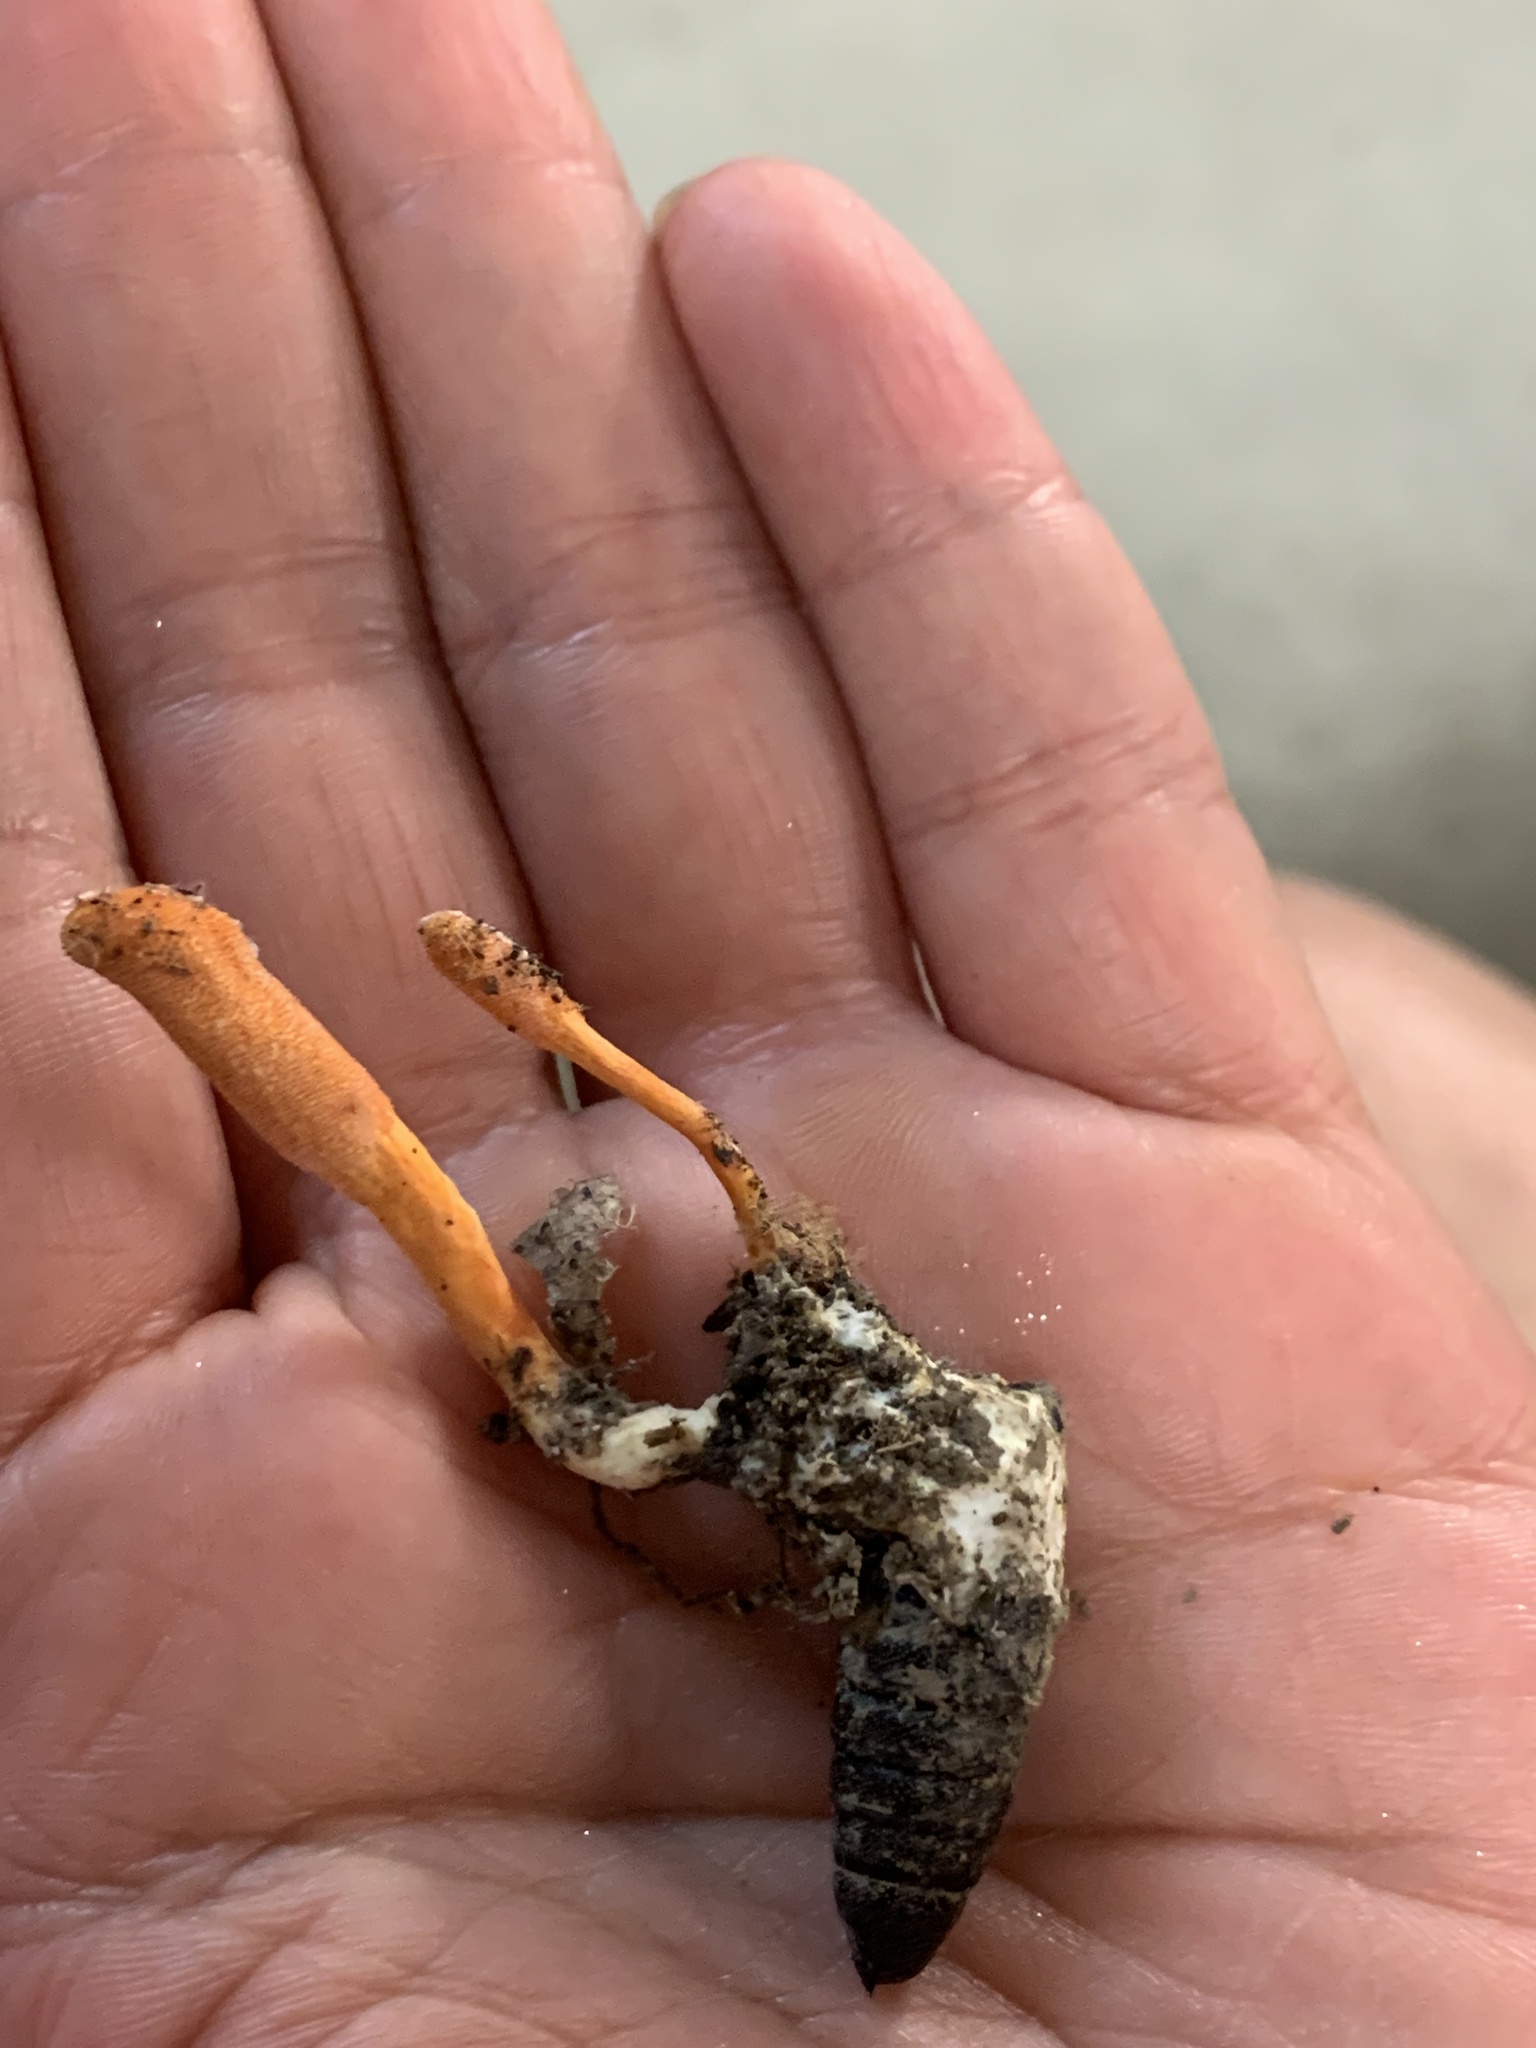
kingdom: Fungi
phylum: Ascomycota
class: Sordariomycetes
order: Hypocreales
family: Cordycipitaceae
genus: Cordyceps
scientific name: Cordyceps militaris
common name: Scarlet caterpillar fungus
